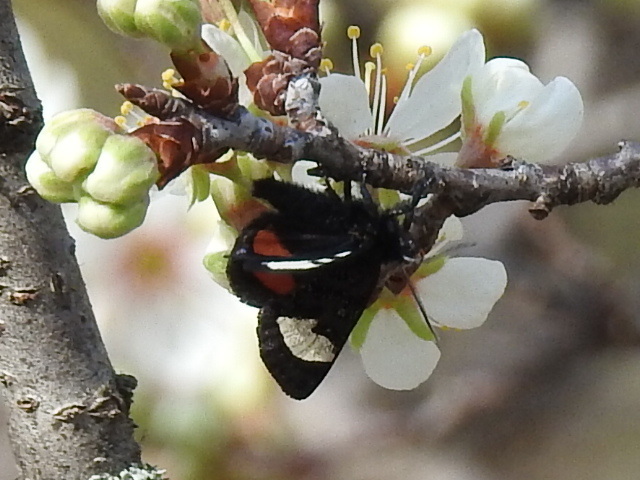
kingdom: Animalia
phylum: Arthropoda
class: Insecta
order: Lepidoptera
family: Noctuidae
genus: Psychomorpha
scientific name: Psychomorpha epimenis
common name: Grapevine epimenis moth
